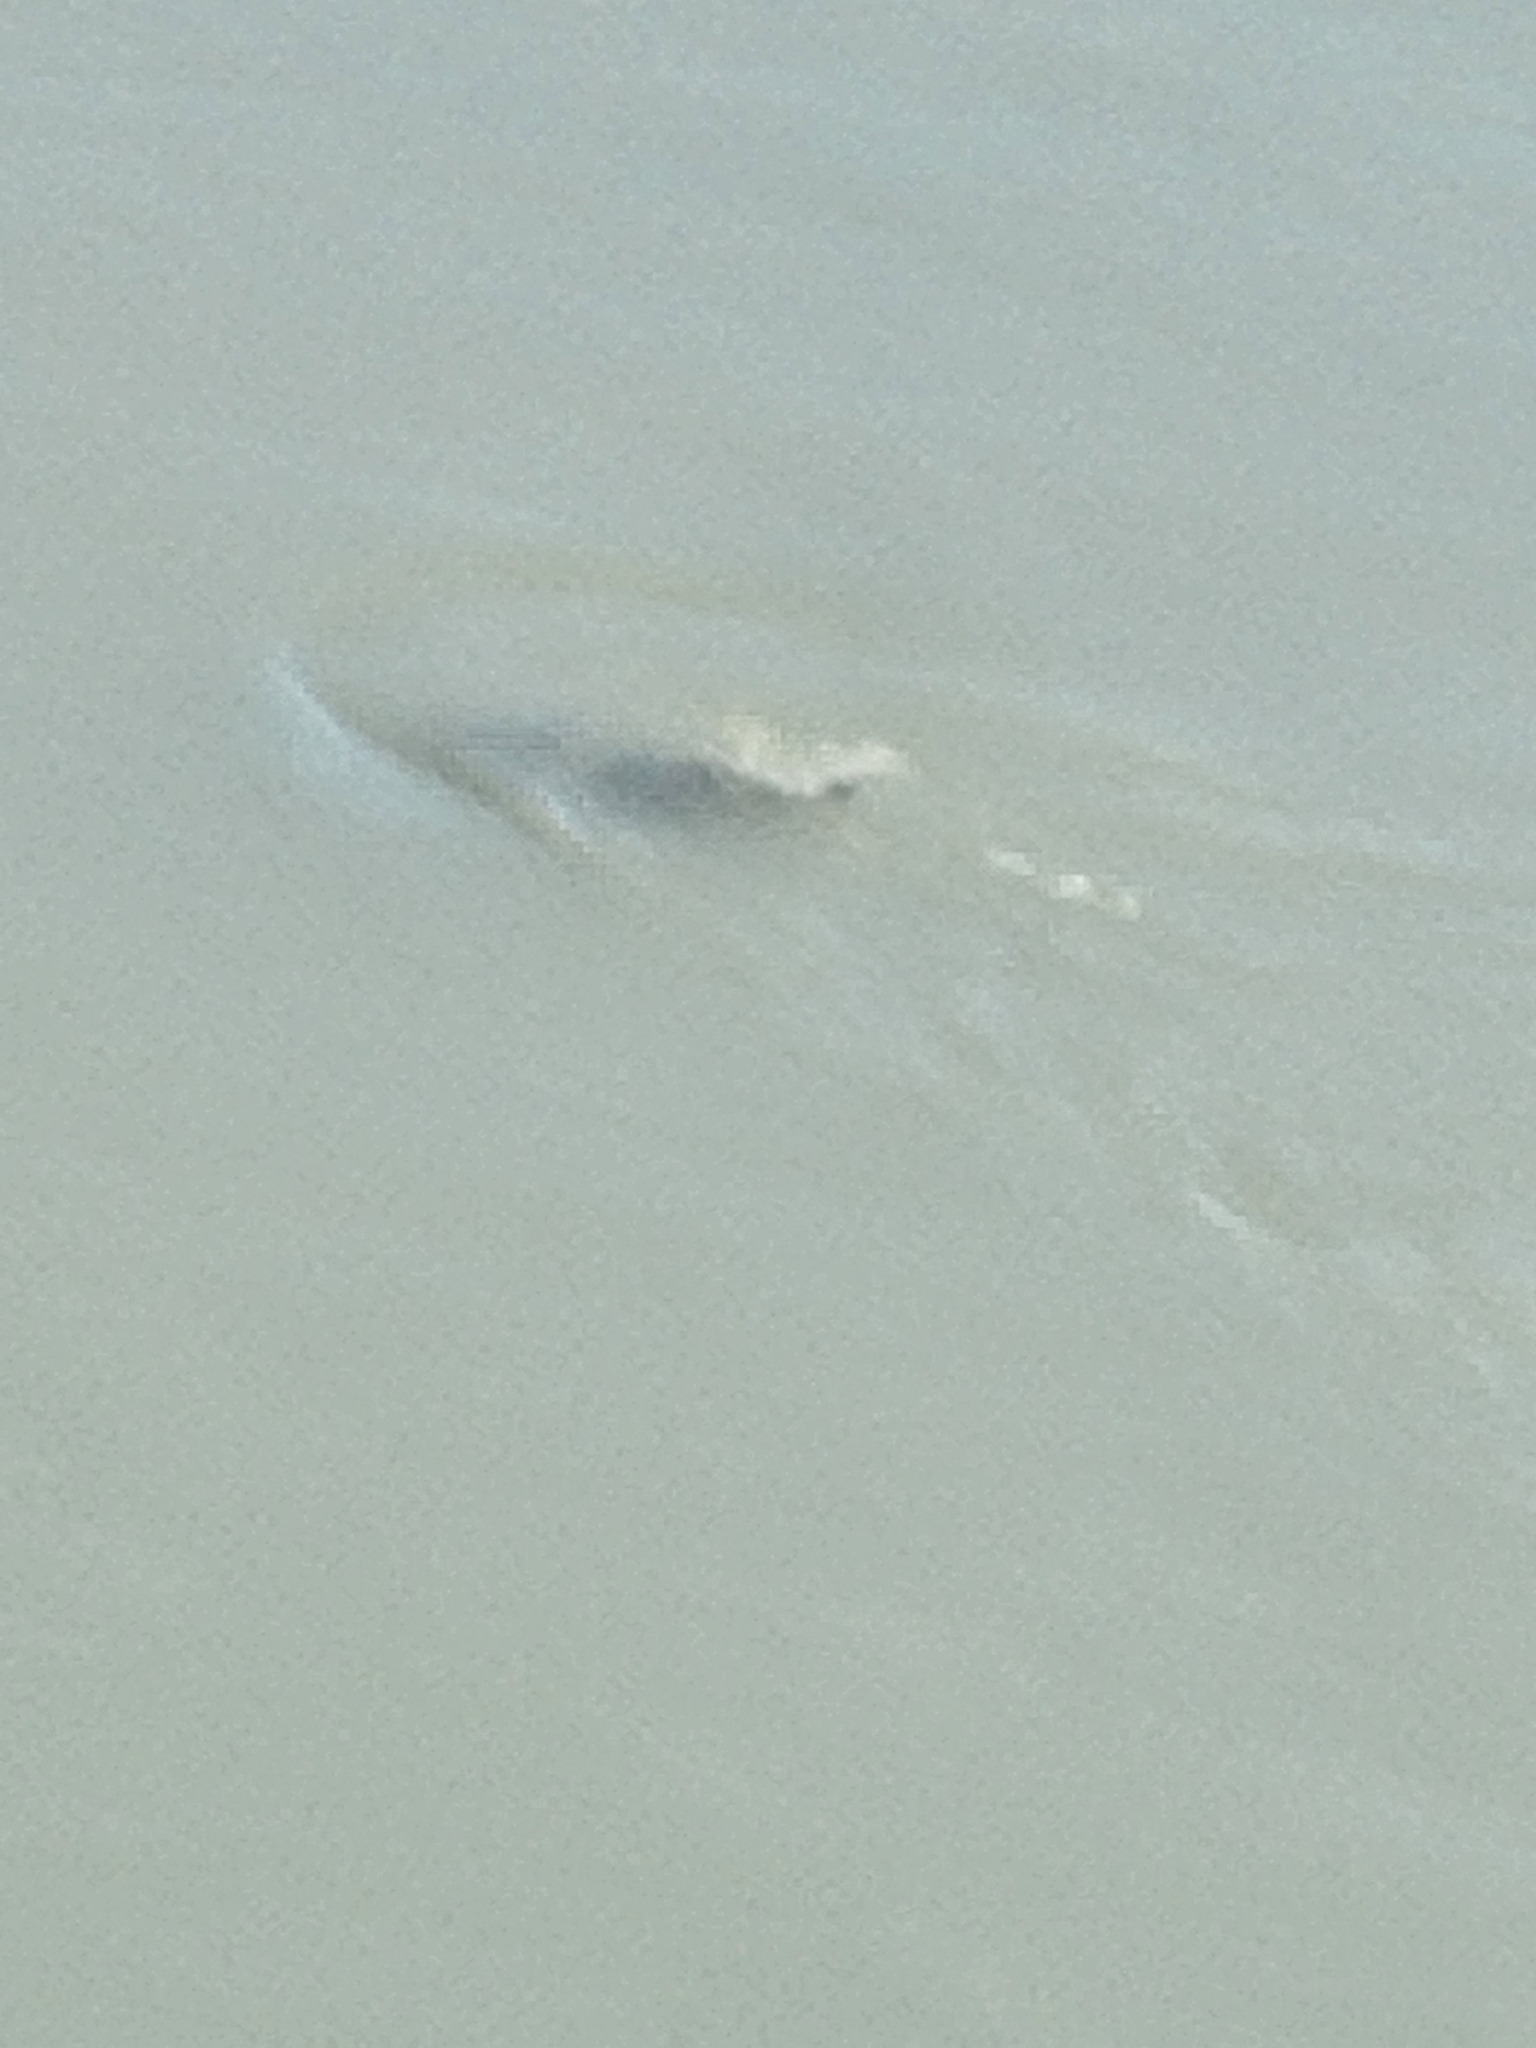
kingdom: Animalia
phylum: Chordata
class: Mammalia
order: Rodentia
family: Castoridae
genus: Castor
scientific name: Castor fiber
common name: Eurasian beaver
